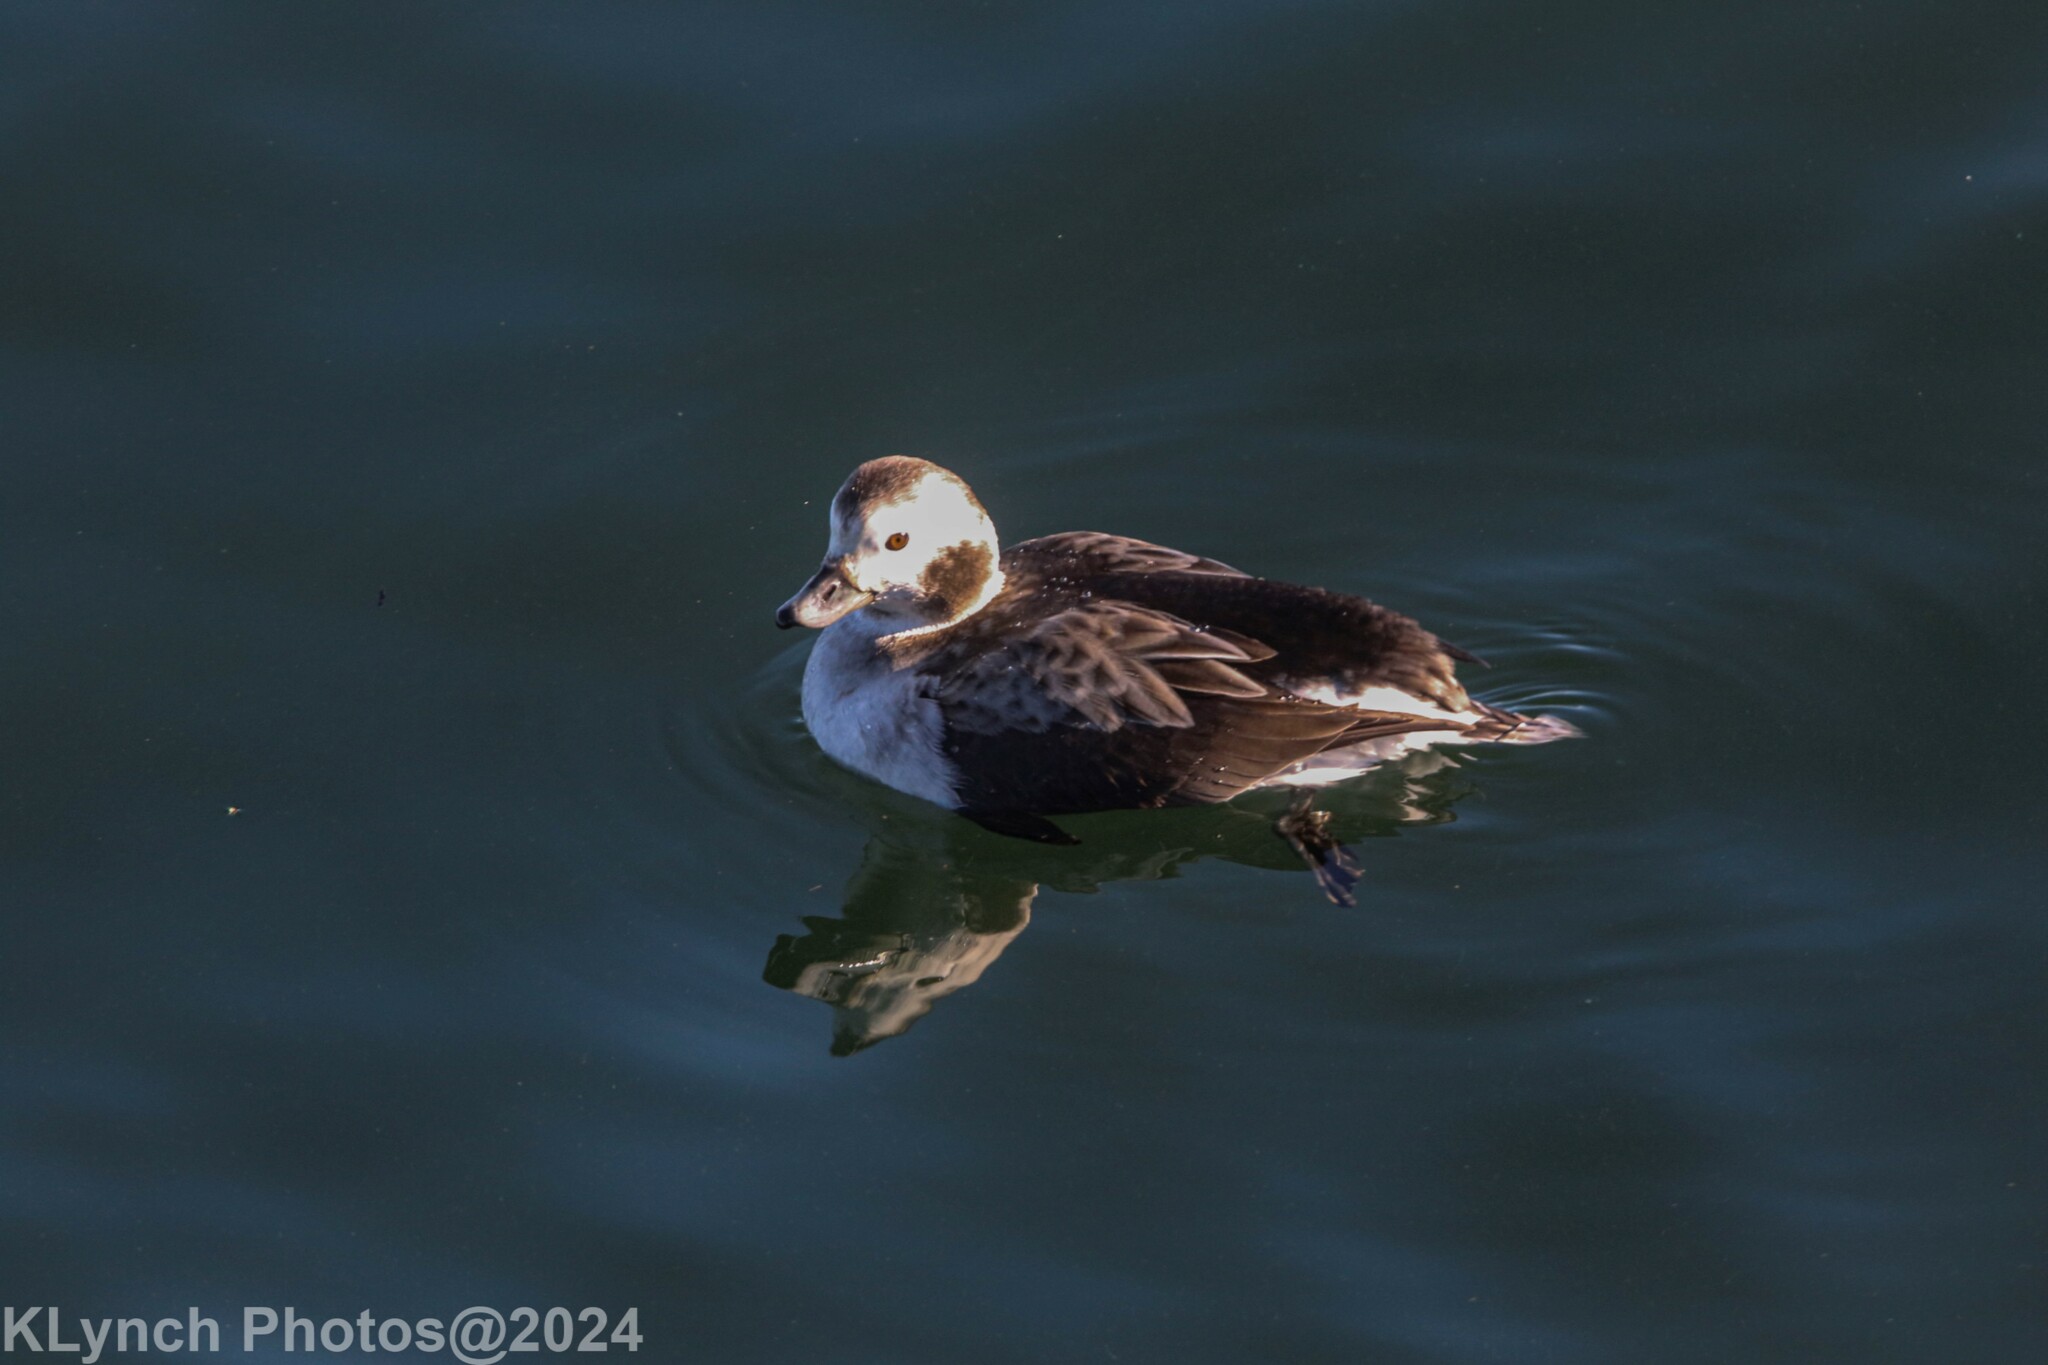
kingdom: Animalia
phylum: Chordata
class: Aves
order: Anseriformes
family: Anatidae
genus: Clangula
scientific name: Clangula hyemalis
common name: Long-tailed duck
